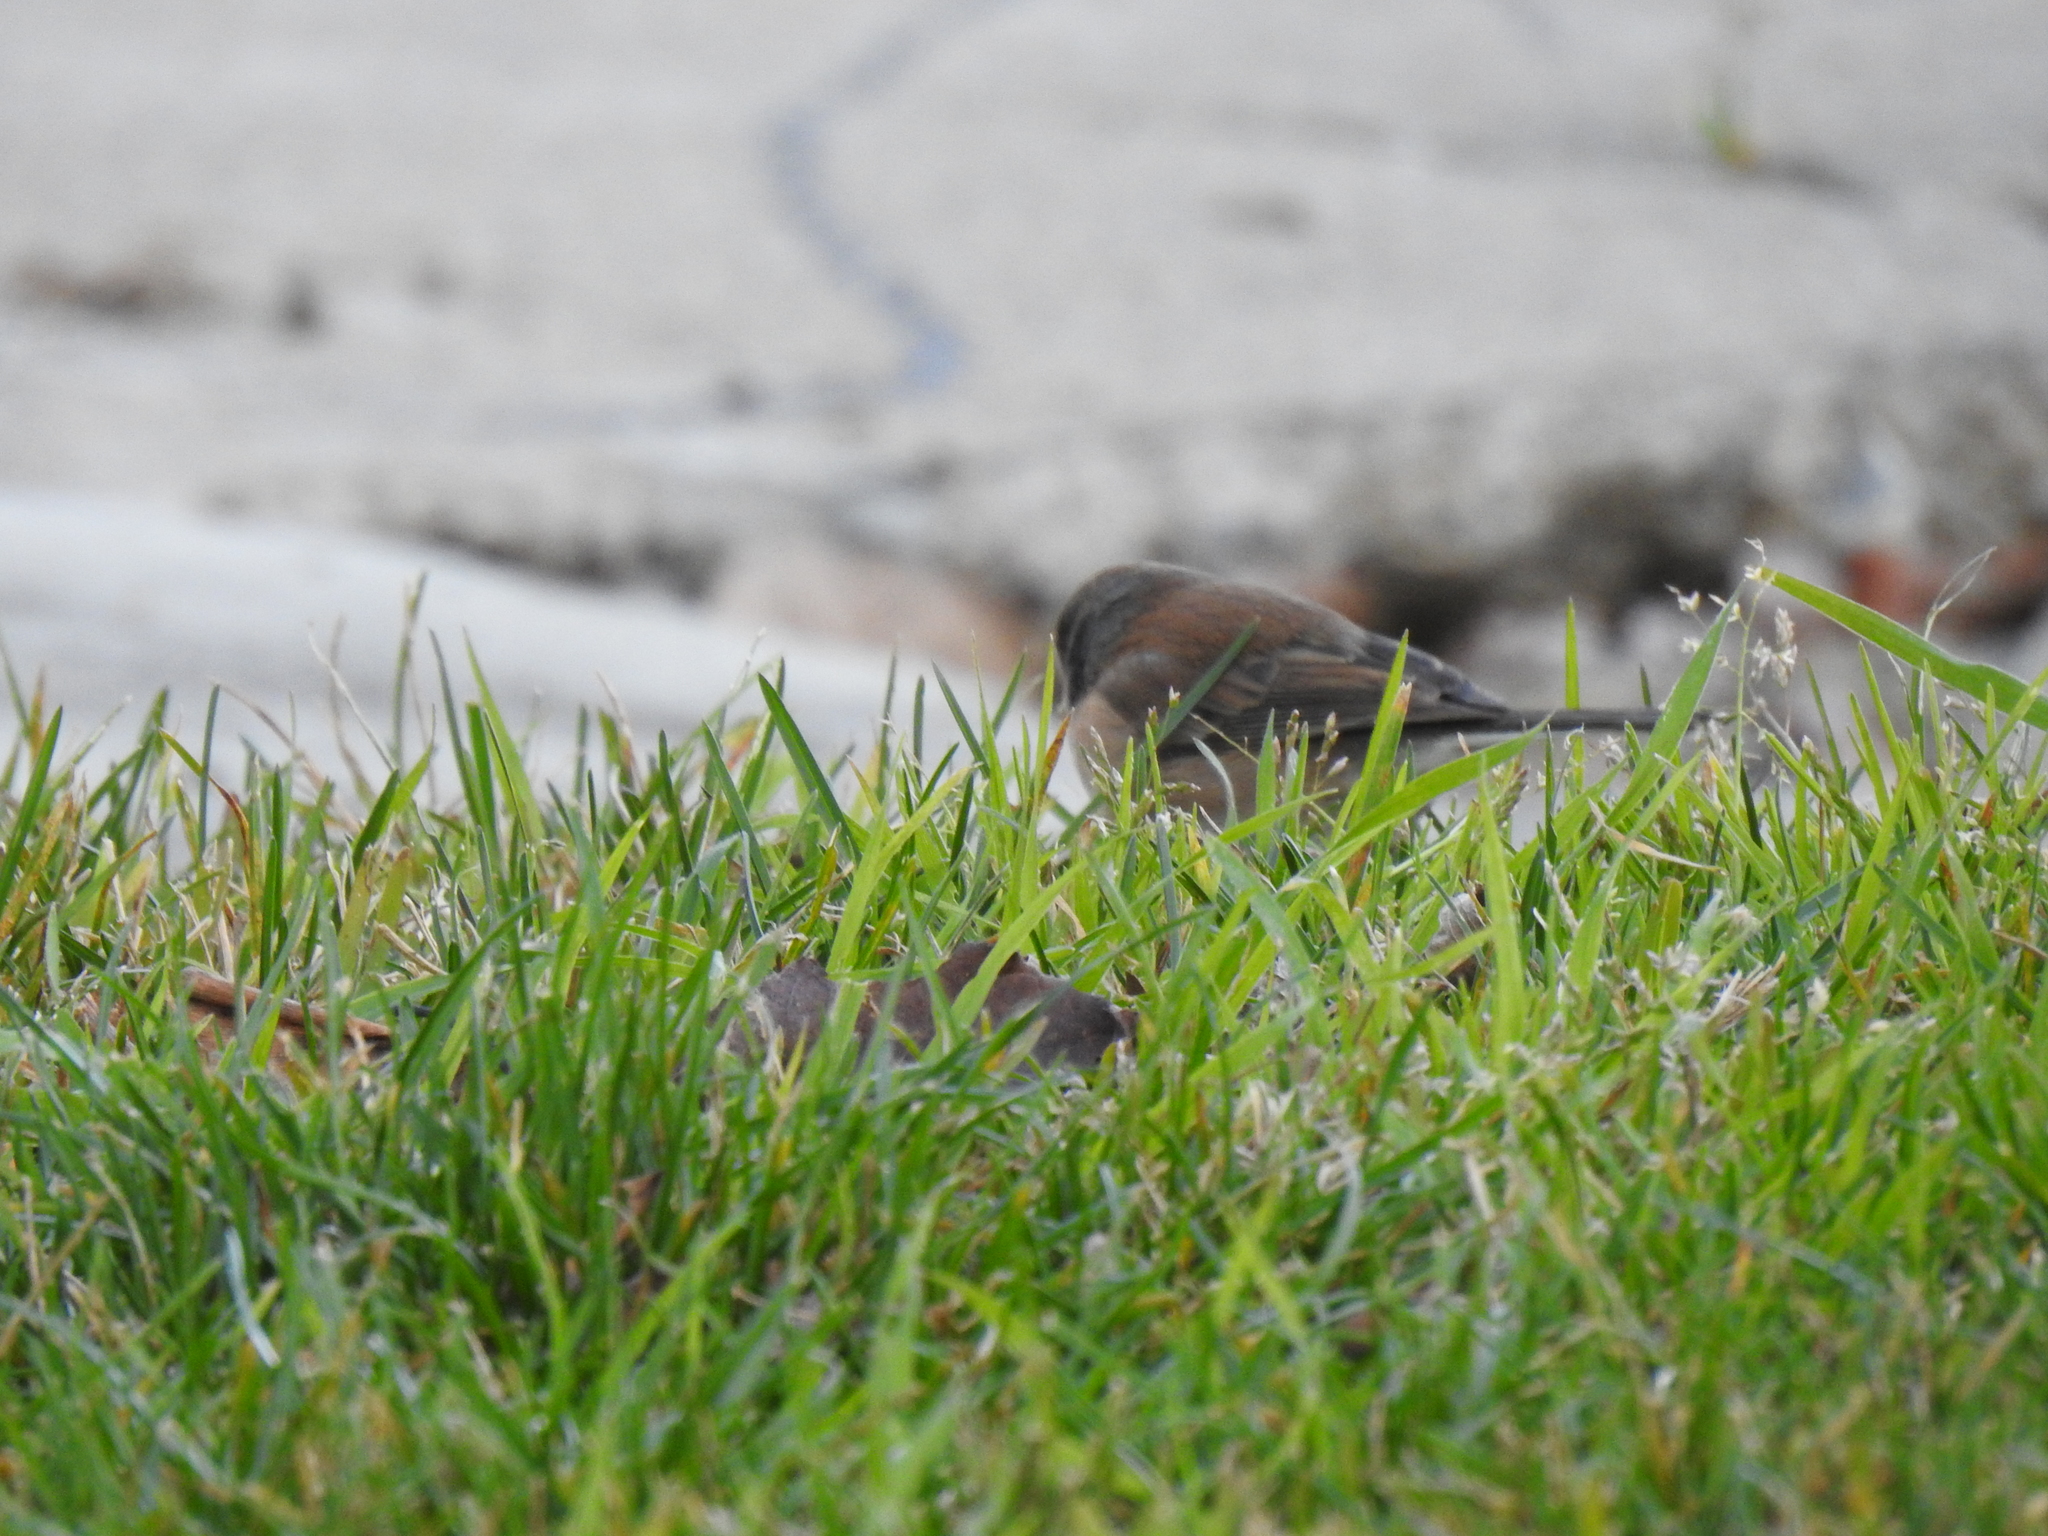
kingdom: Animalia
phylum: Chordata
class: Aves
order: Passeriformes
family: Passerellidae
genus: Junco
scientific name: Junco hyemalis
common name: Dark-eyed junco
